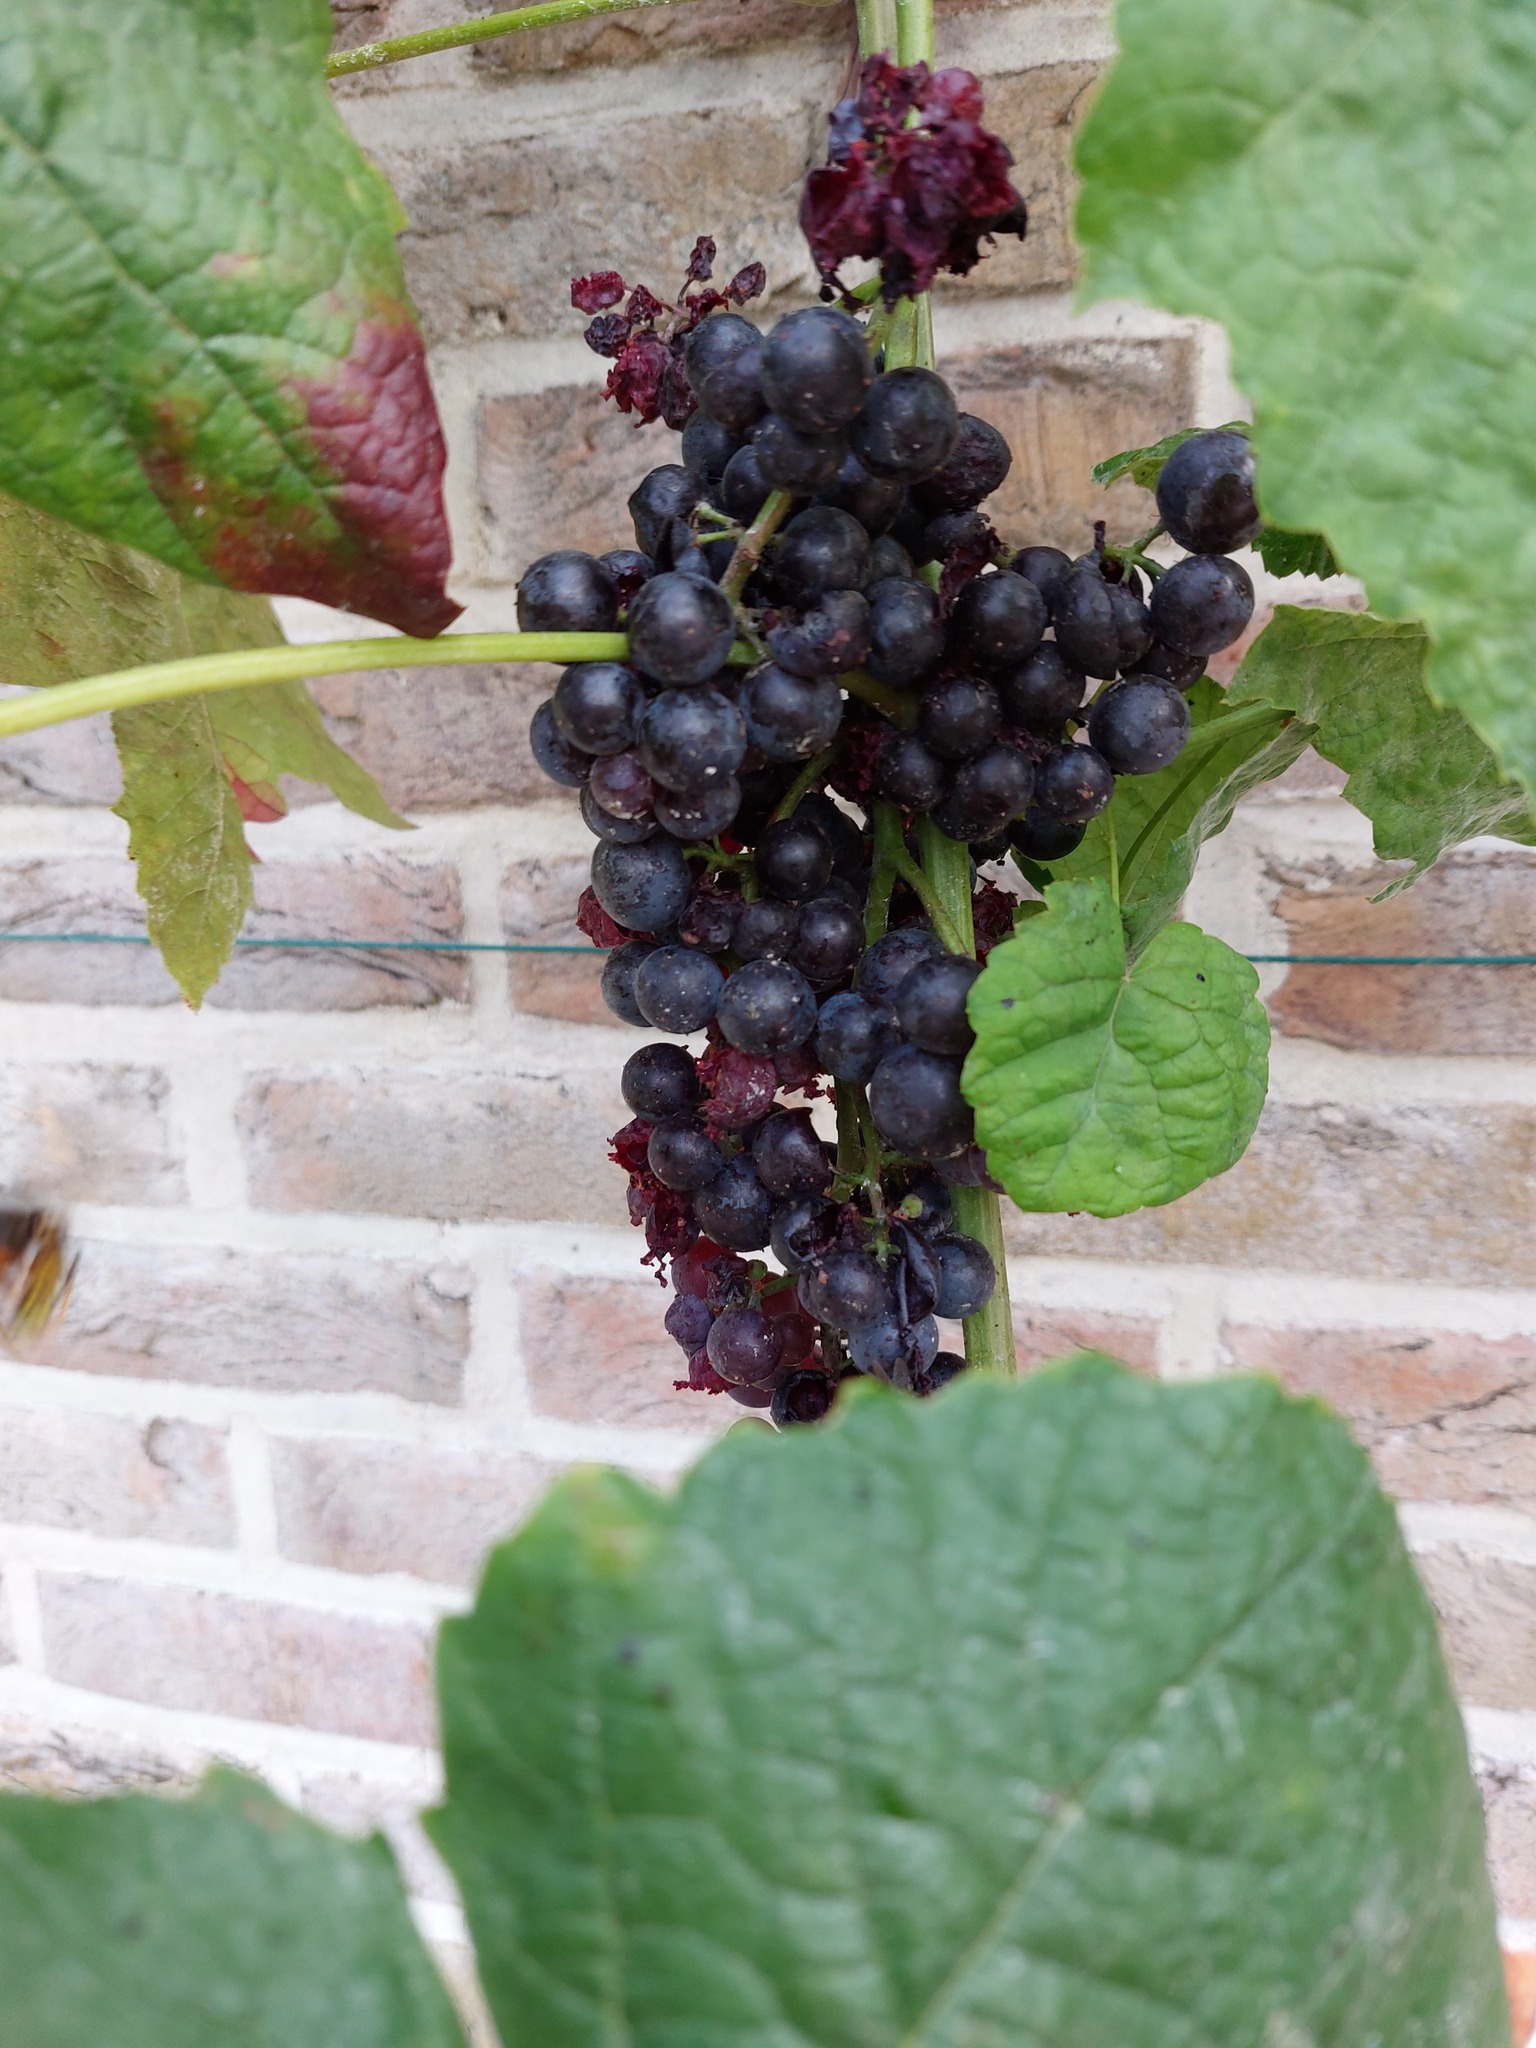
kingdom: Animalia
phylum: Arthropoda
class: Insecta
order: Hymenoptera
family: Vespidae
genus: Vespa
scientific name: Vespa velutina
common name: Asian hornet
